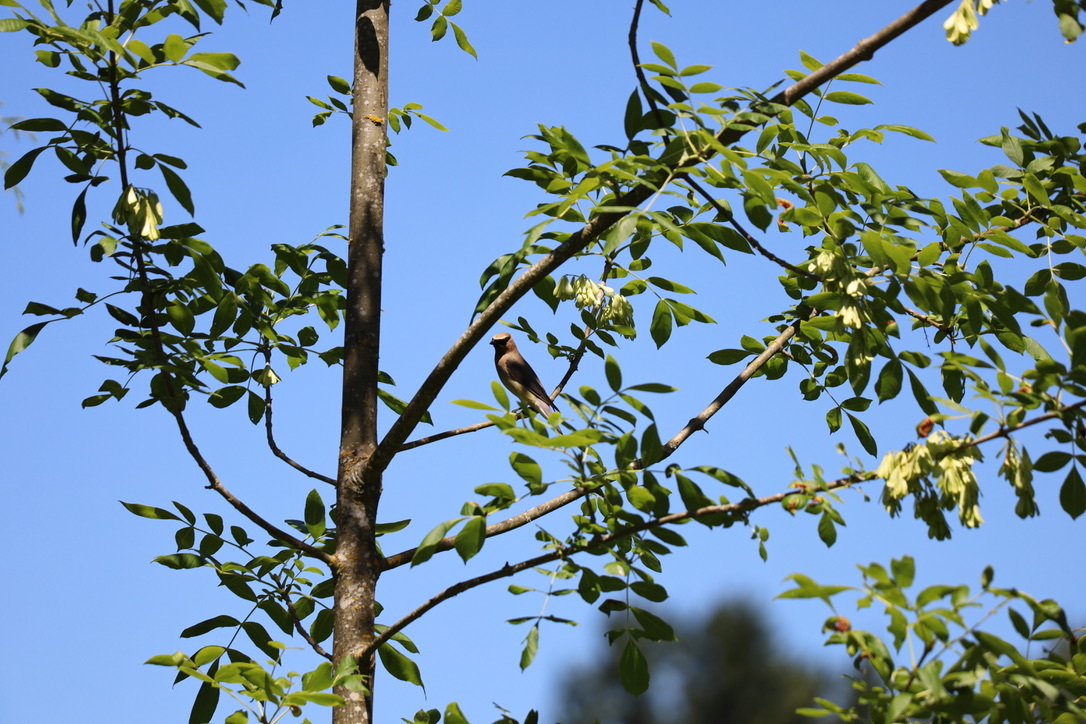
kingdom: Animalia
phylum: Chordata
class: Aves
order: Passeriformes
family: Bombycillidae
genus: Bombycilla
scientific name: Bombycilla cedrorum
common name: Cedar waxwing
